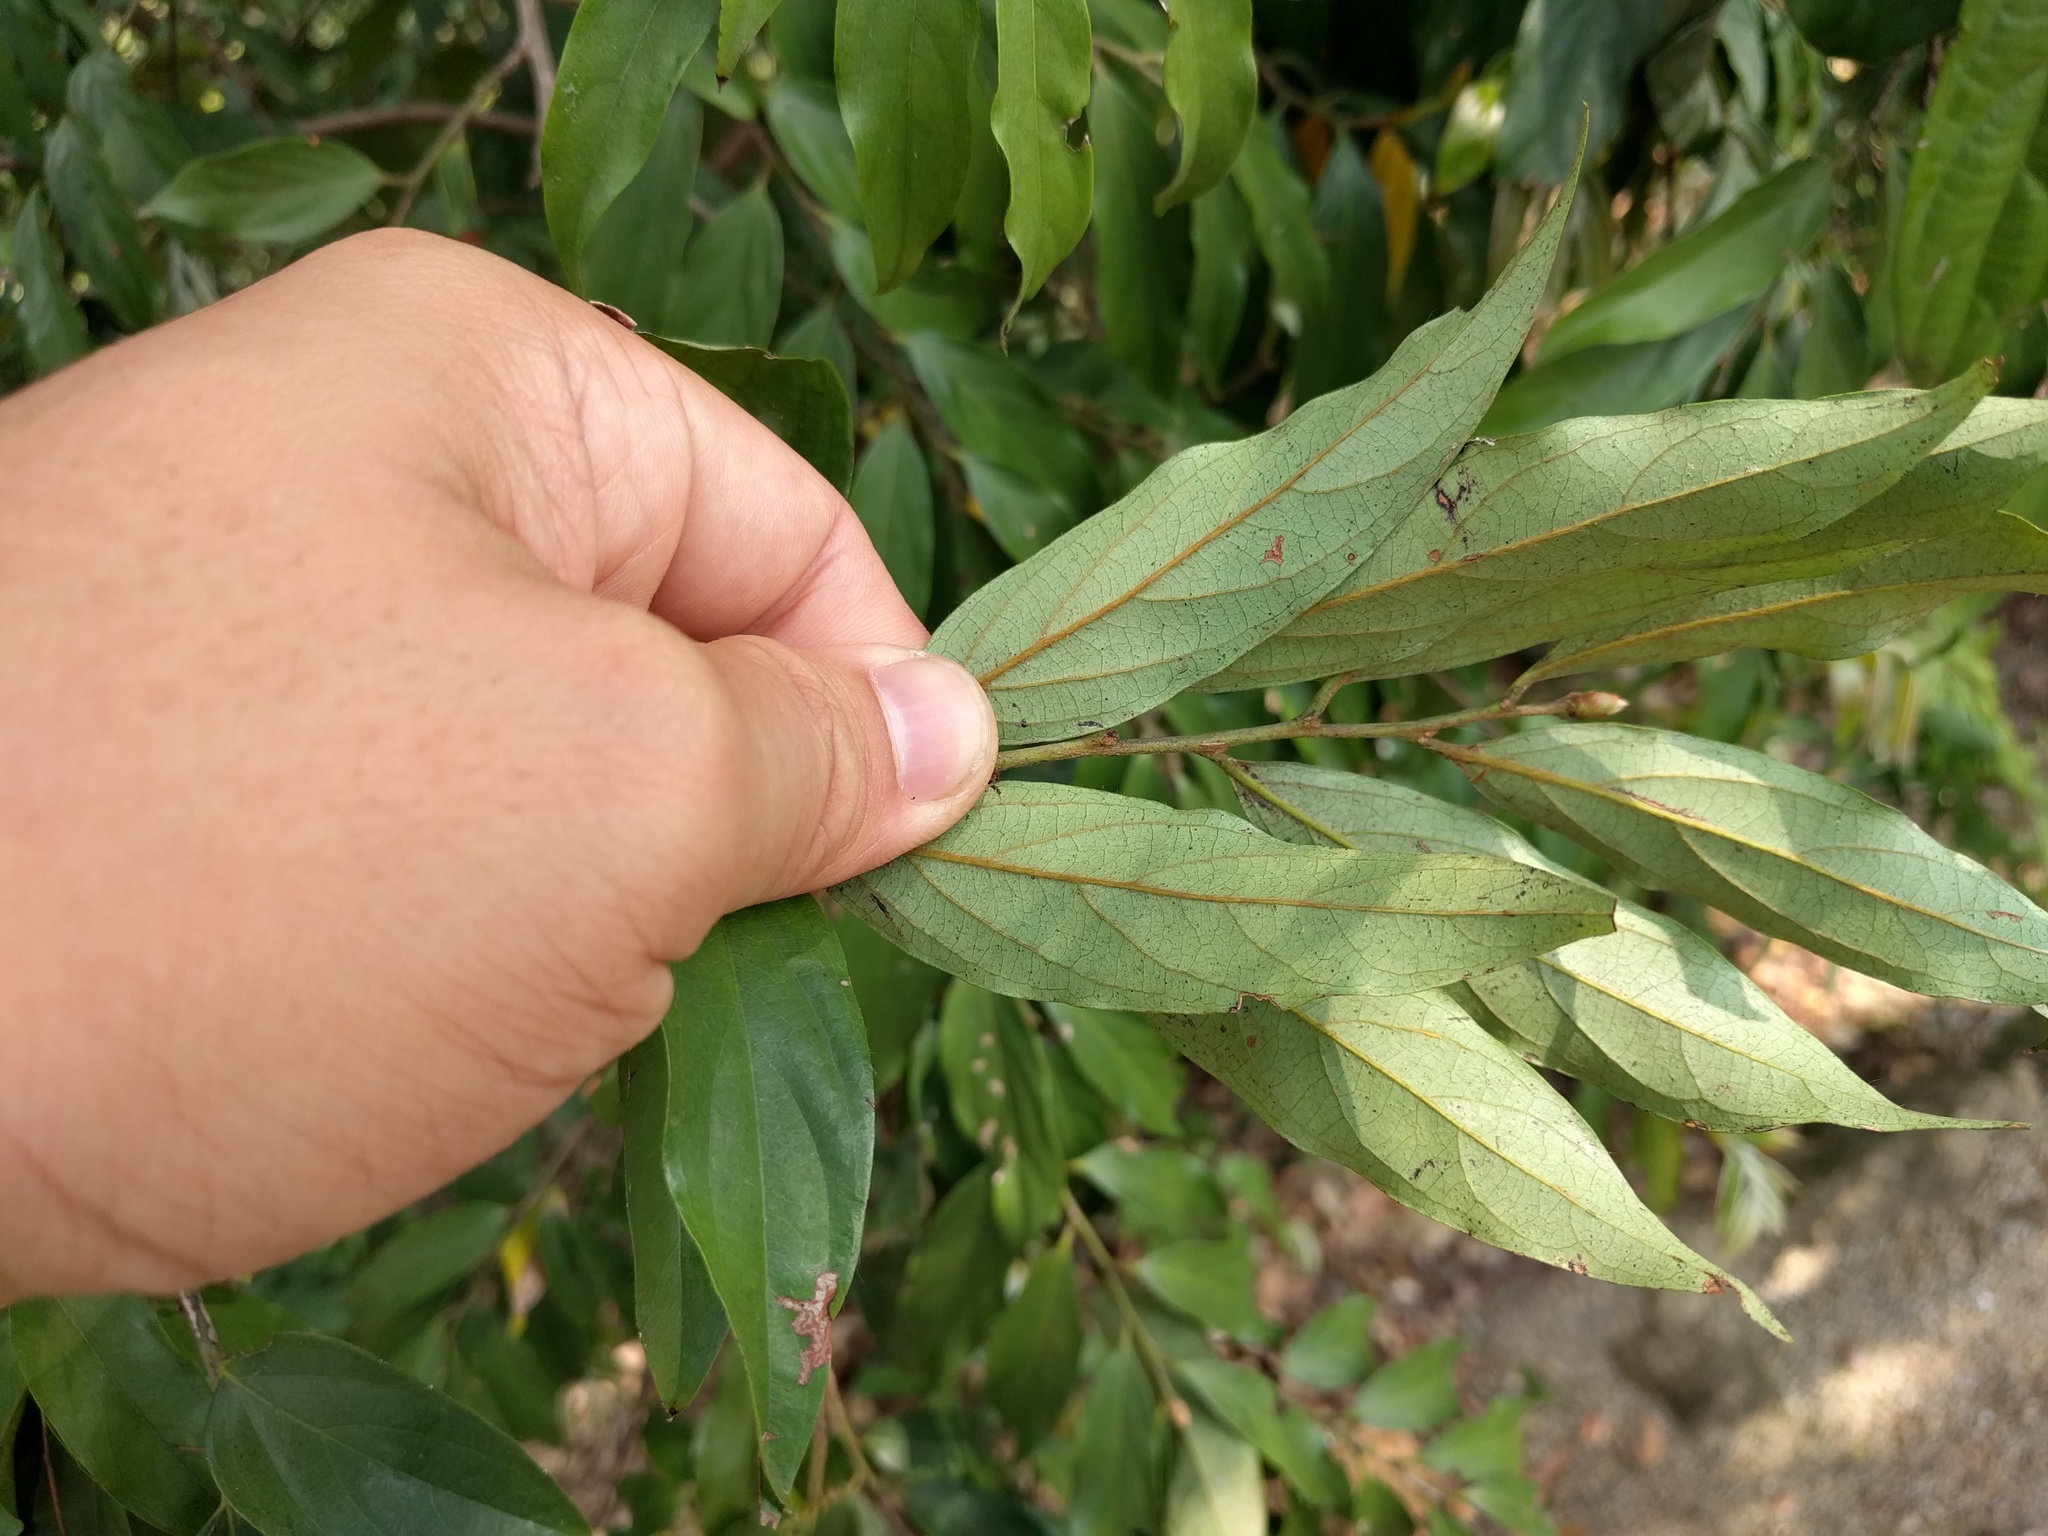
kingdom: Plantae
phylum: Tracheophyta
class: Magnoliopsida
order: Ericales
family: Ebenaceae
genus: Diospyros
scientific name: Diospyros eriantha
